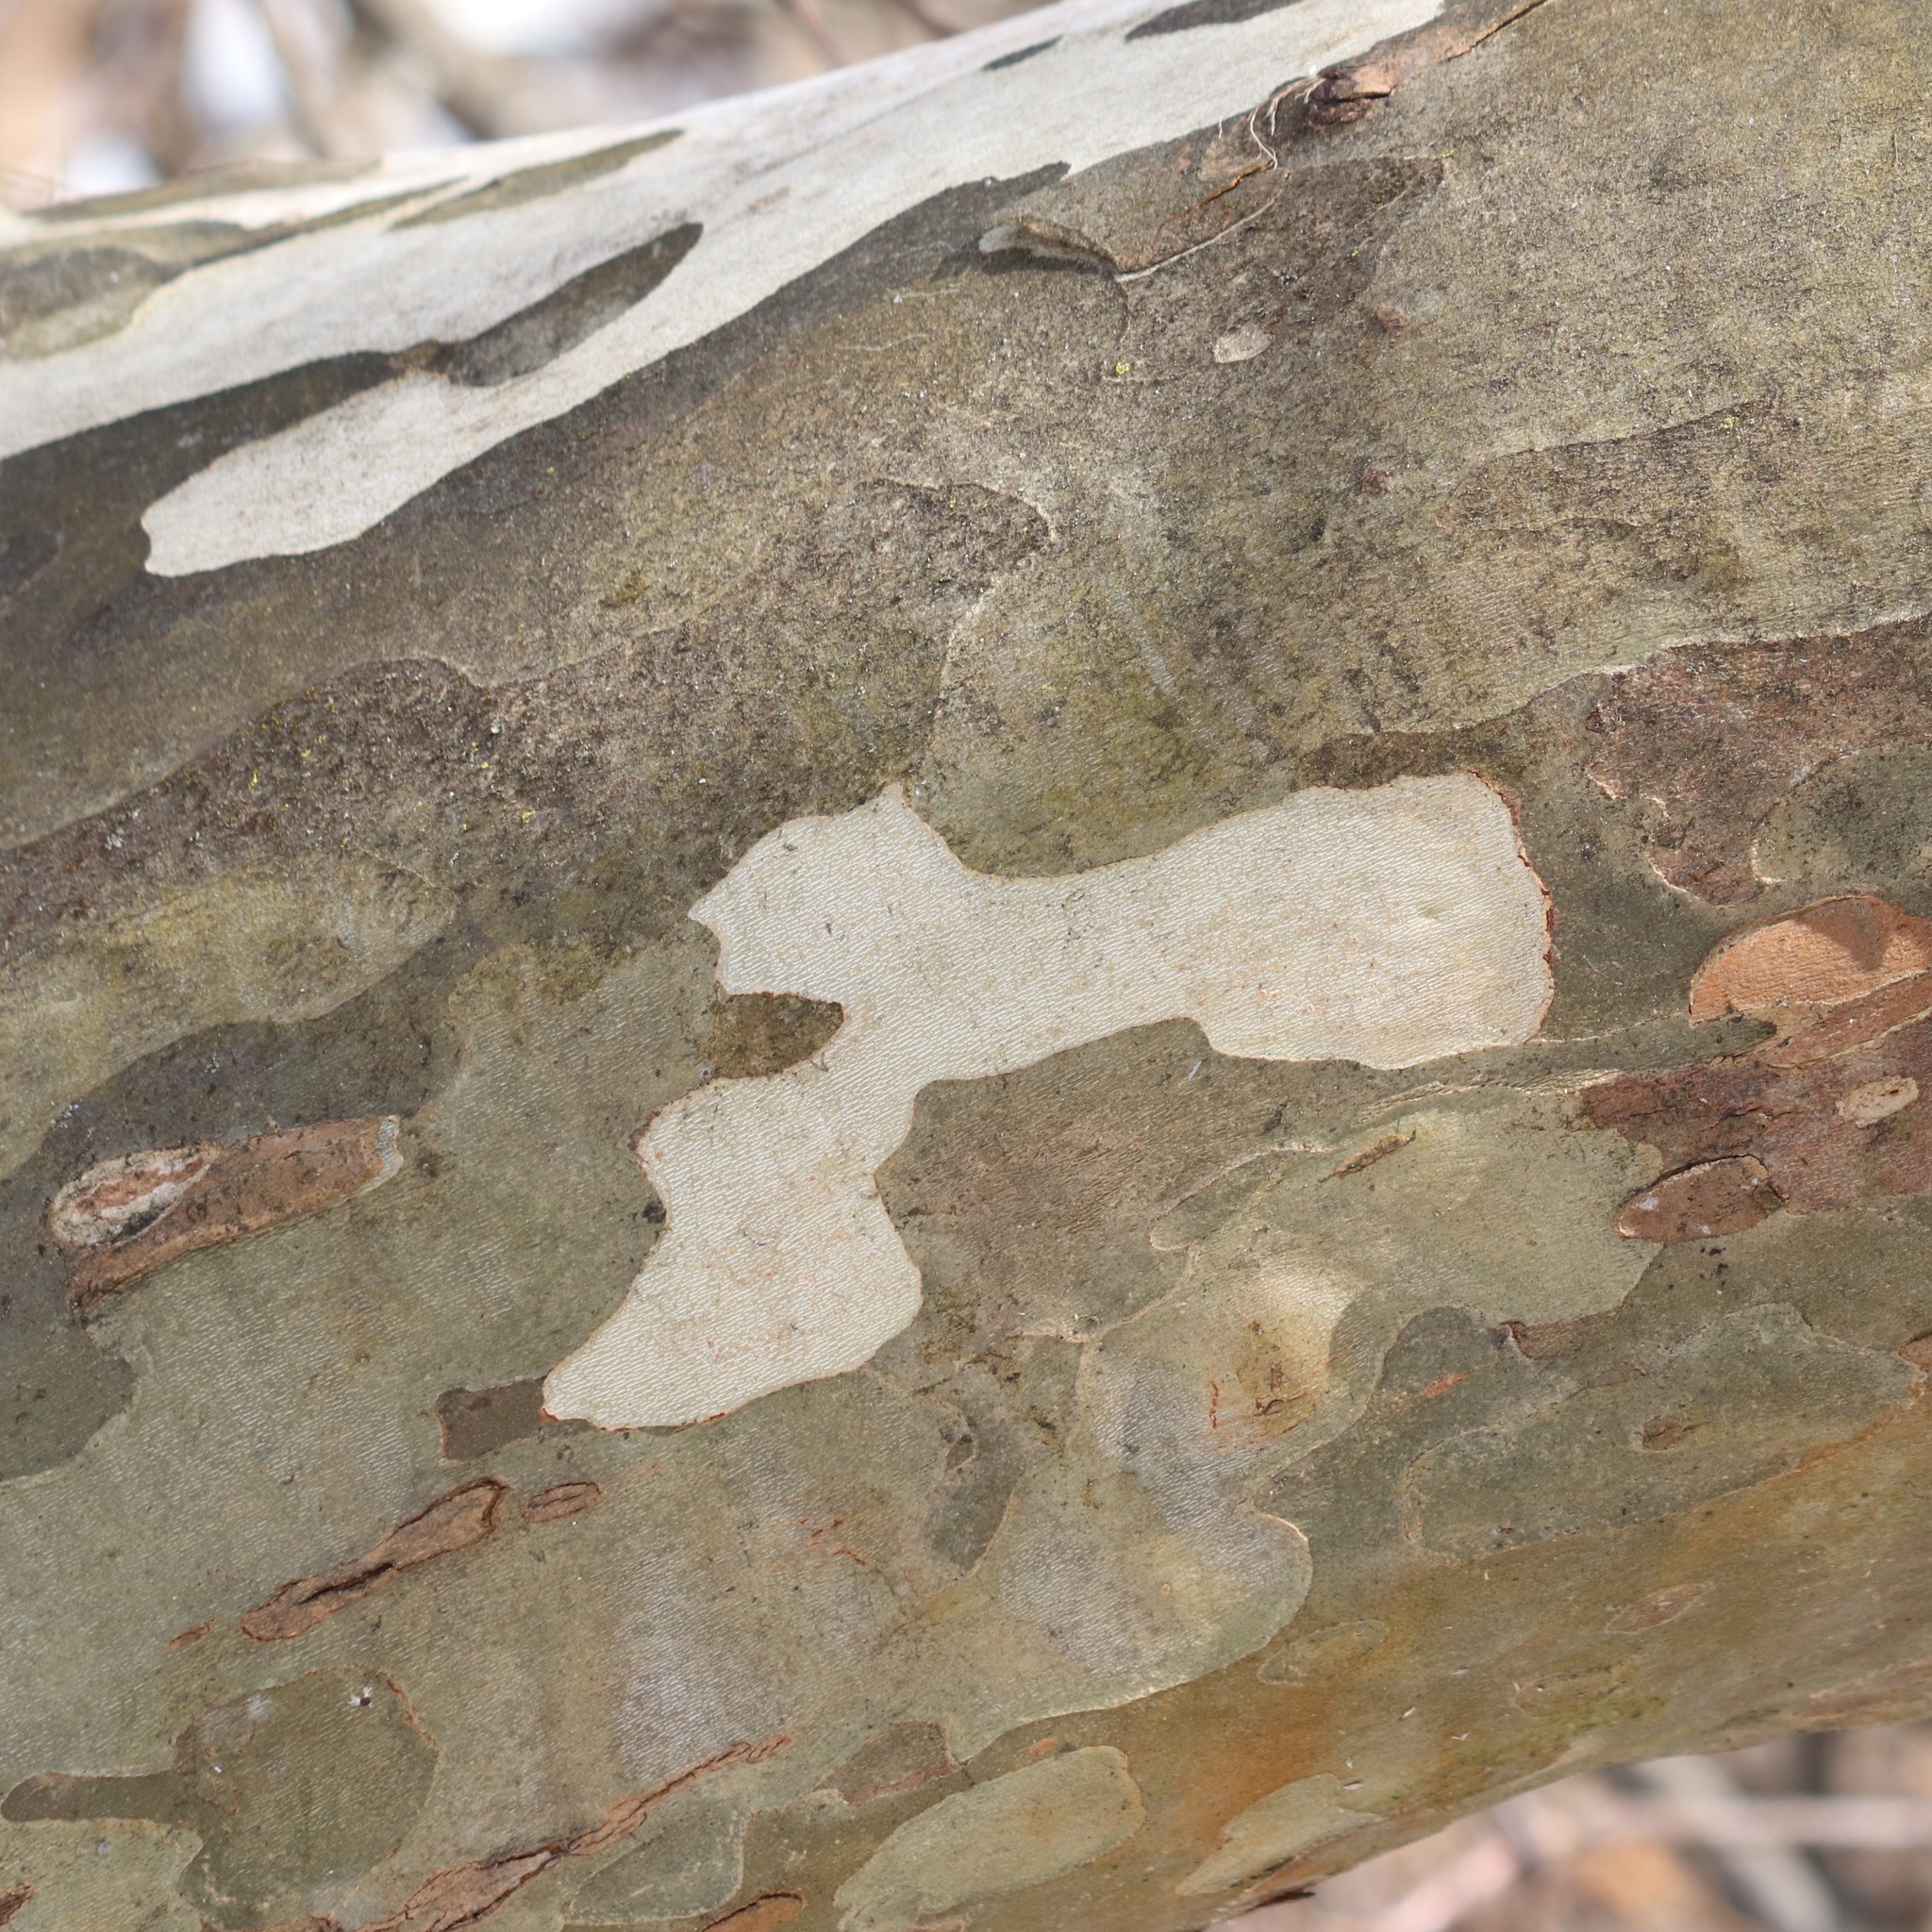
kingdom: Plantae
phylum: Tracheophyta
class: Magnoliopsida
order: Proteales
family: Platanaceae
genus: Platanus
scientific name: Platanus occidentalis
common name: American sycamore
